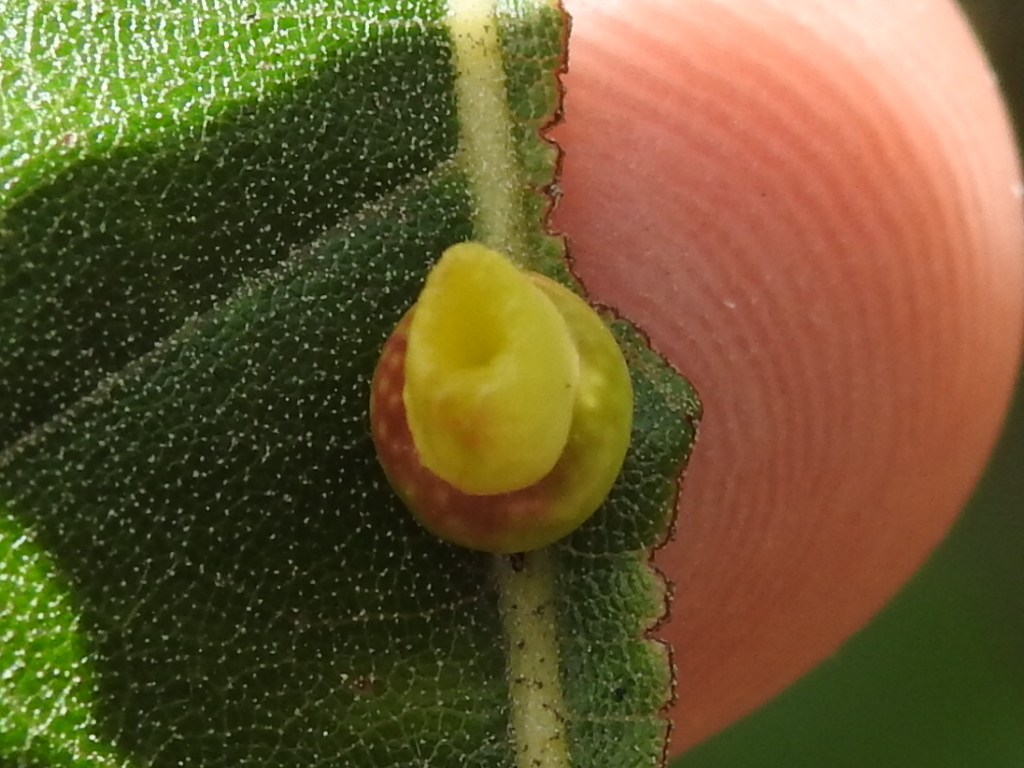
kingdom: Animalia
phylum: Arthropoda
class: Insecta
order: Hymenoptera
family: Cynipidae
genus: Kokkocynips
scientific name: Kokkocynips rileyi
